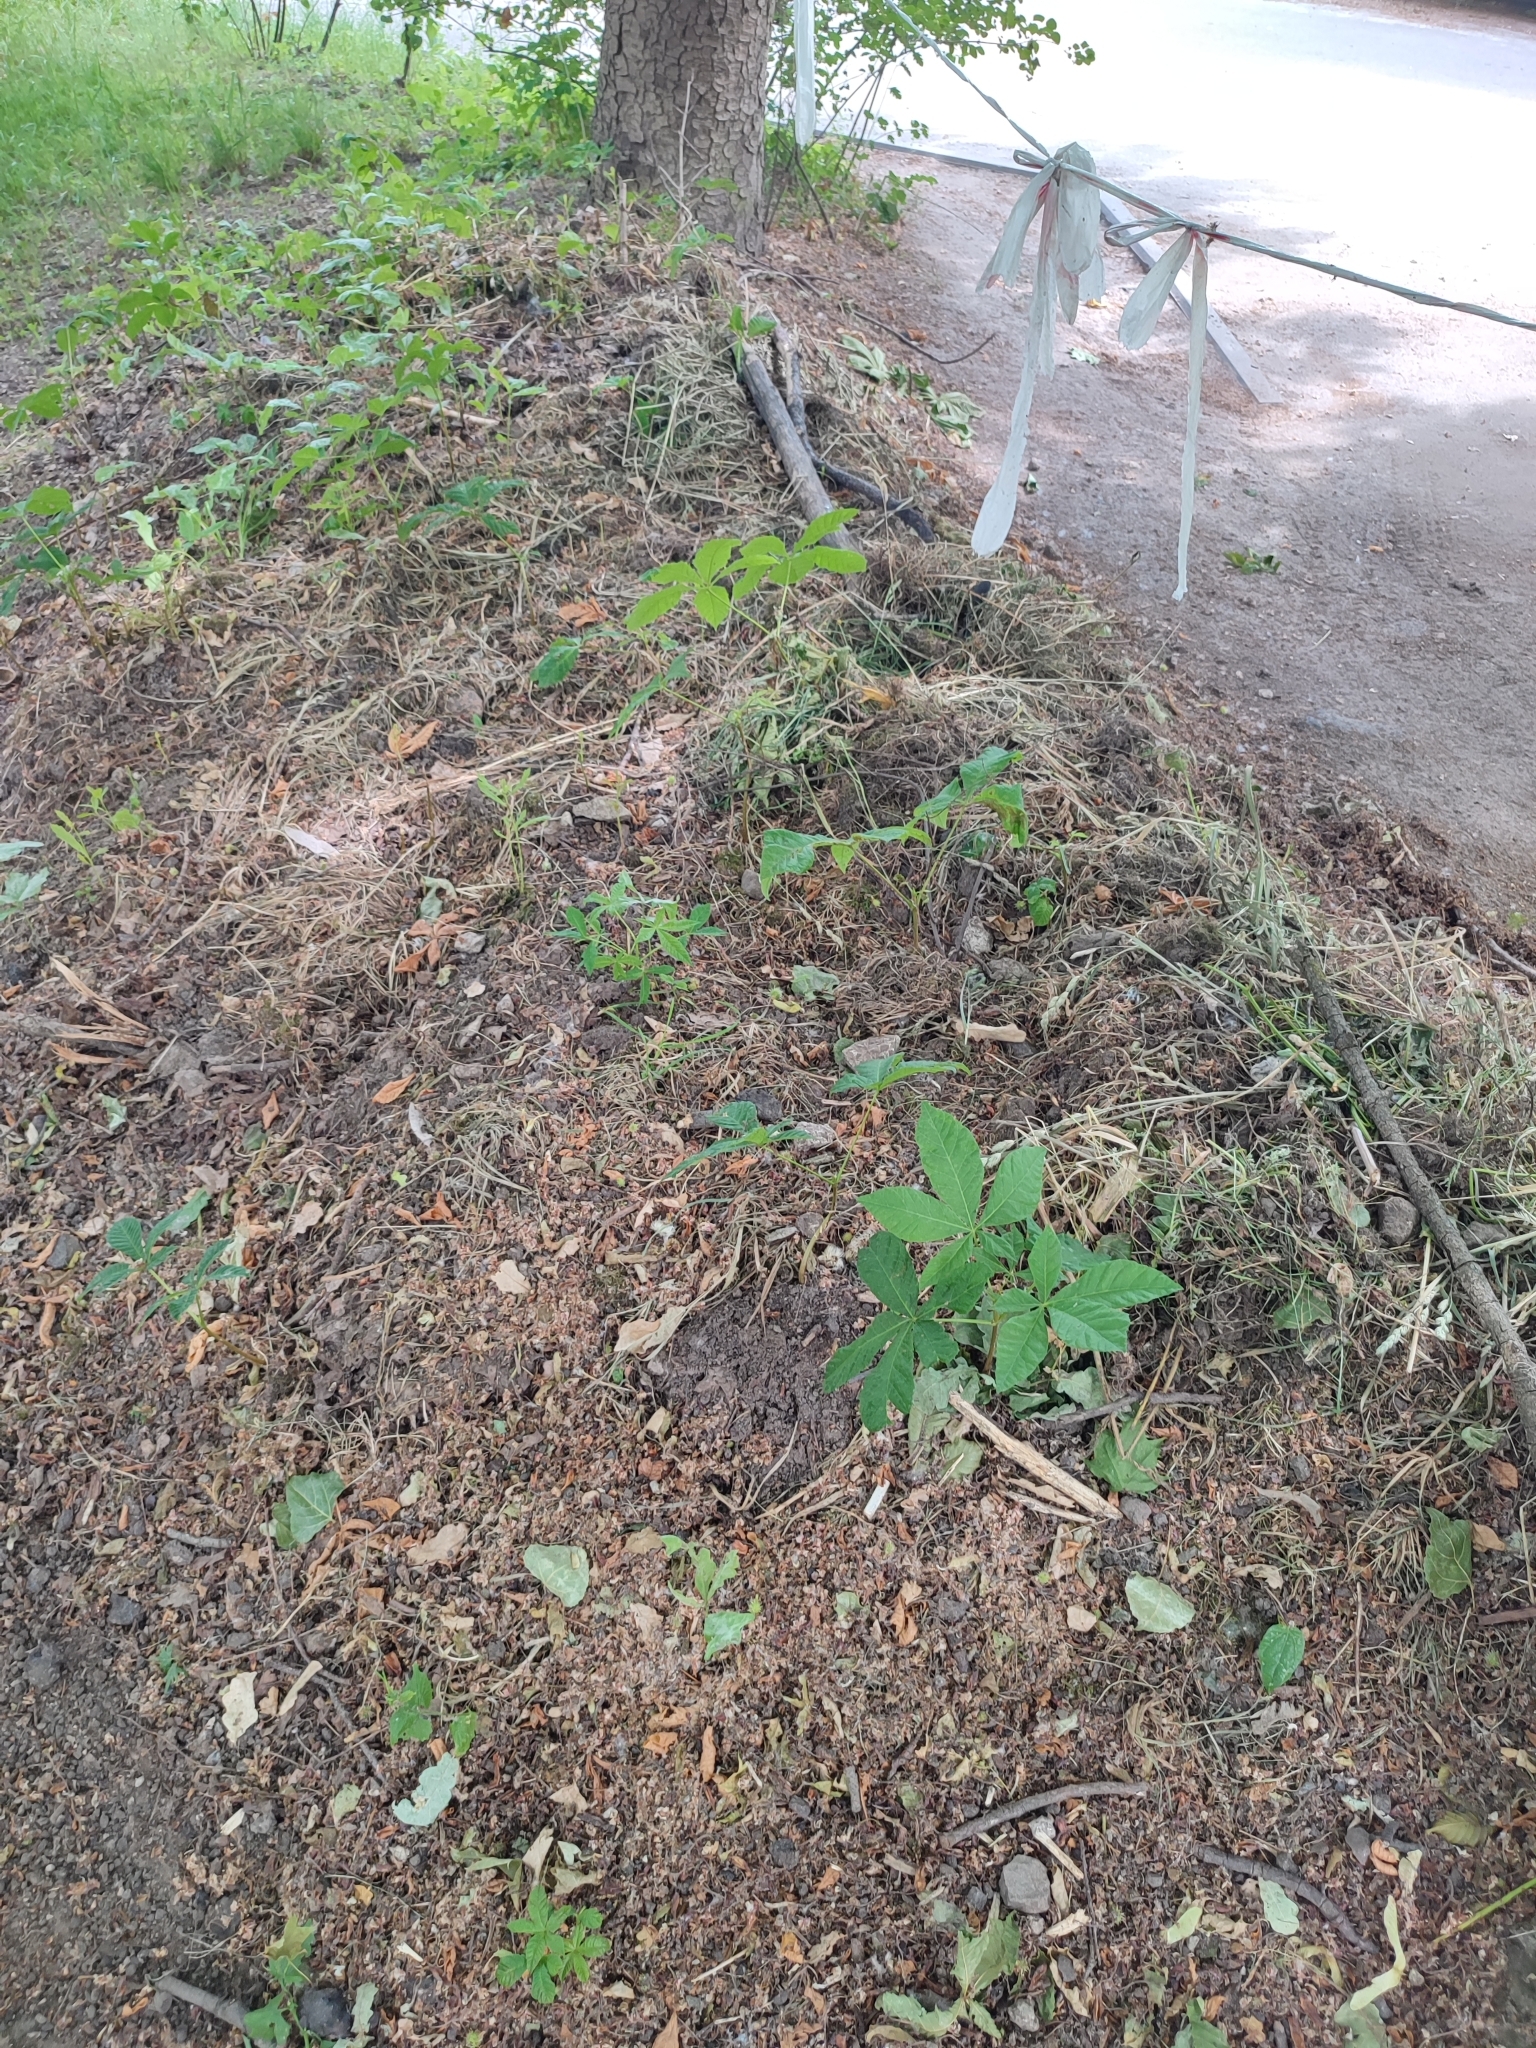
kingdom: Plantae
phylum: Tracheophyta
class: Magnoliopsida
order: Sapindales
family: Sapindaceae
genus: Aesculus
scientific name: Aesculus hippocastanum
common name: Horse-chestnut
